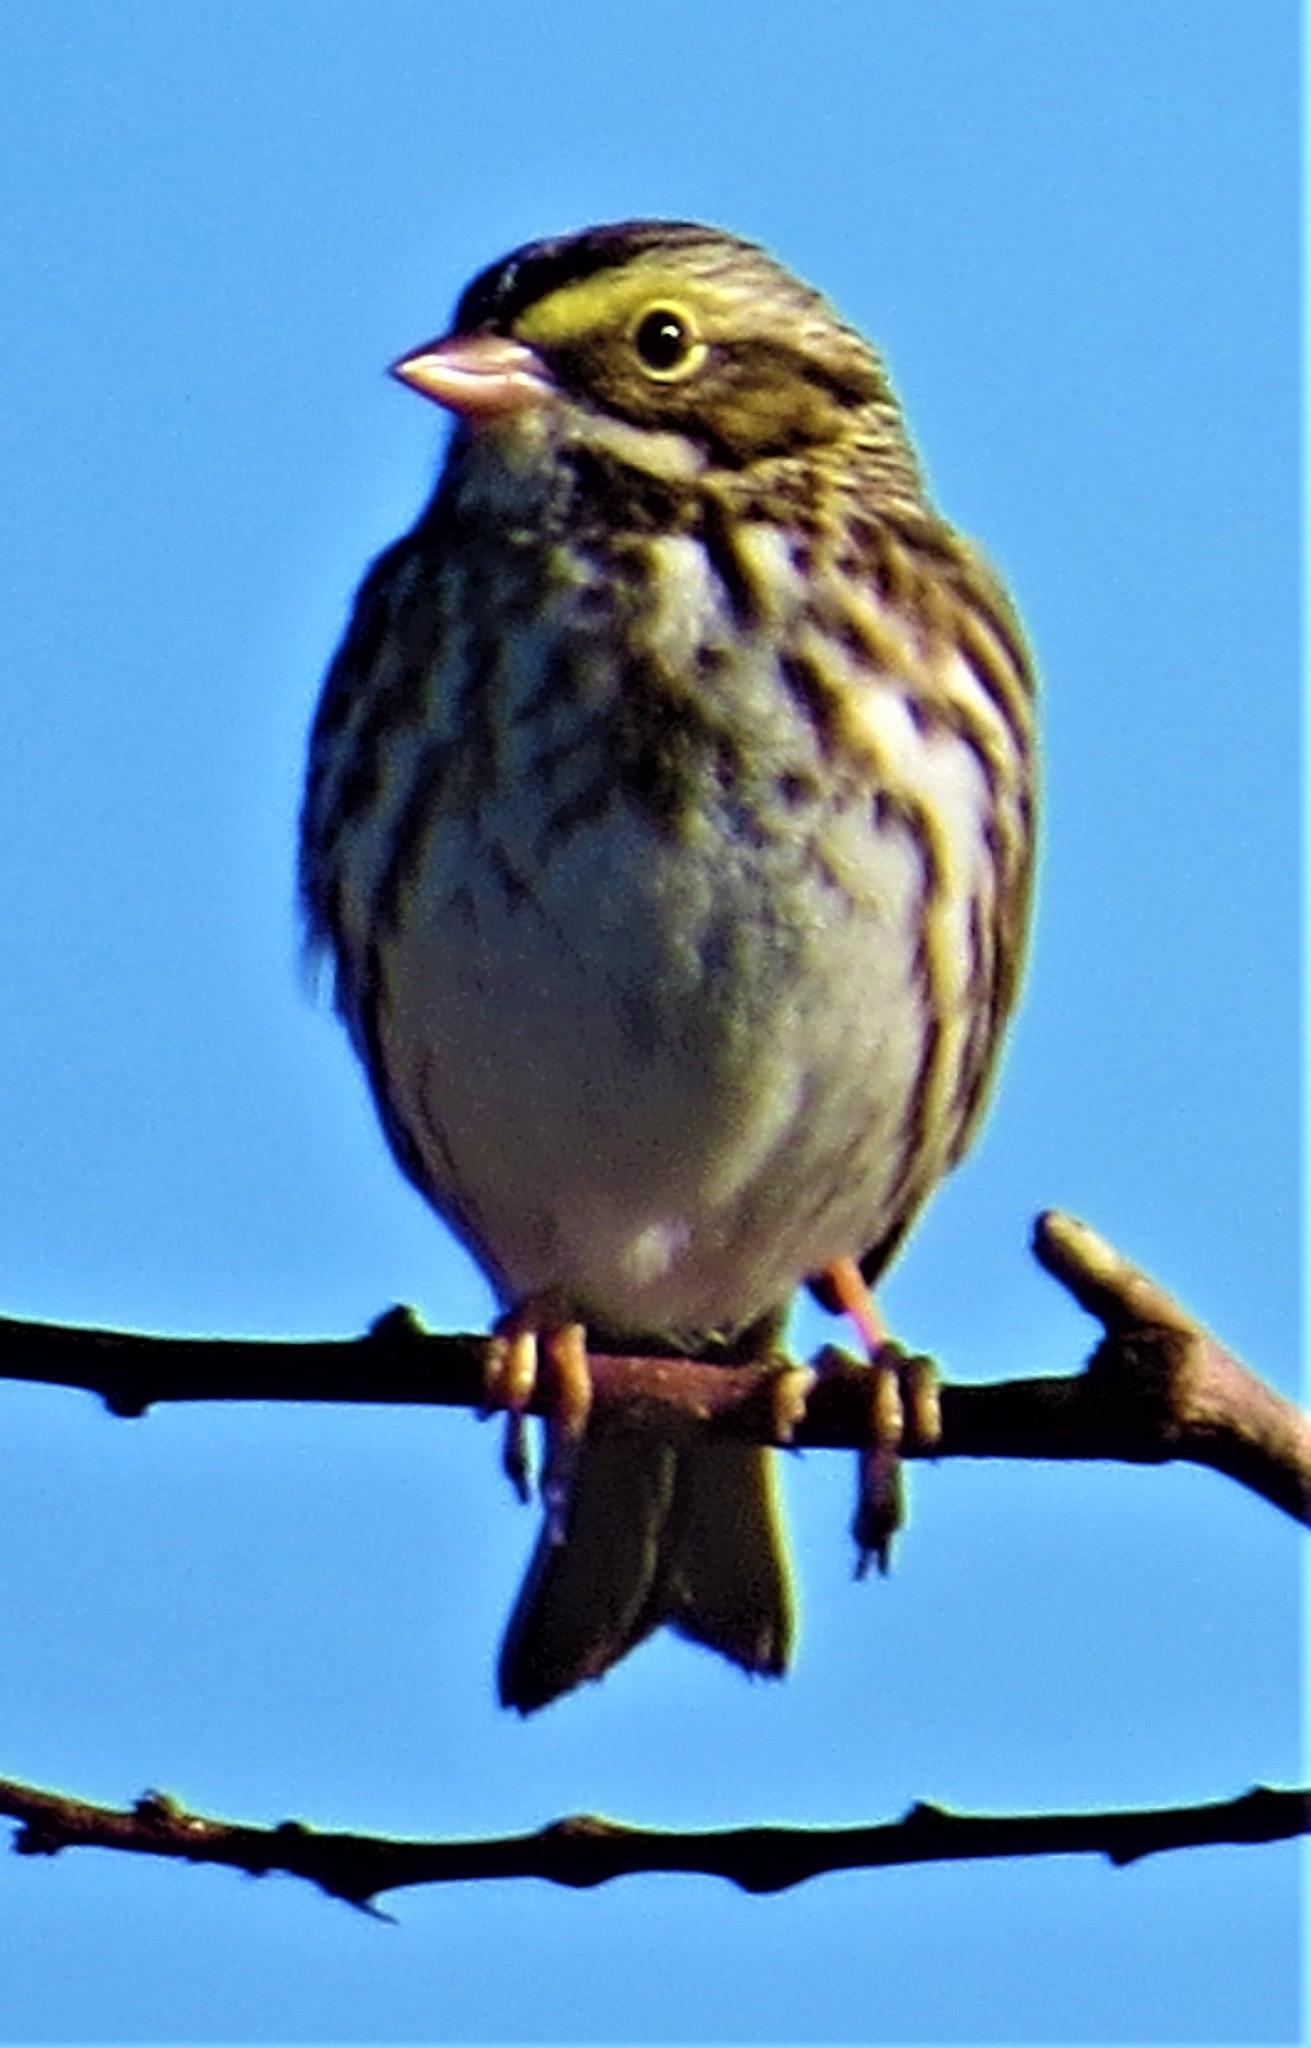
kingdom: Animalia
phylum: Chordata
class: Aves
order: Passeriformes
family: Passerellidae
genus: Passerculus
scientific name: Passerculus sandwichensis
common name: Savannah sparrow
